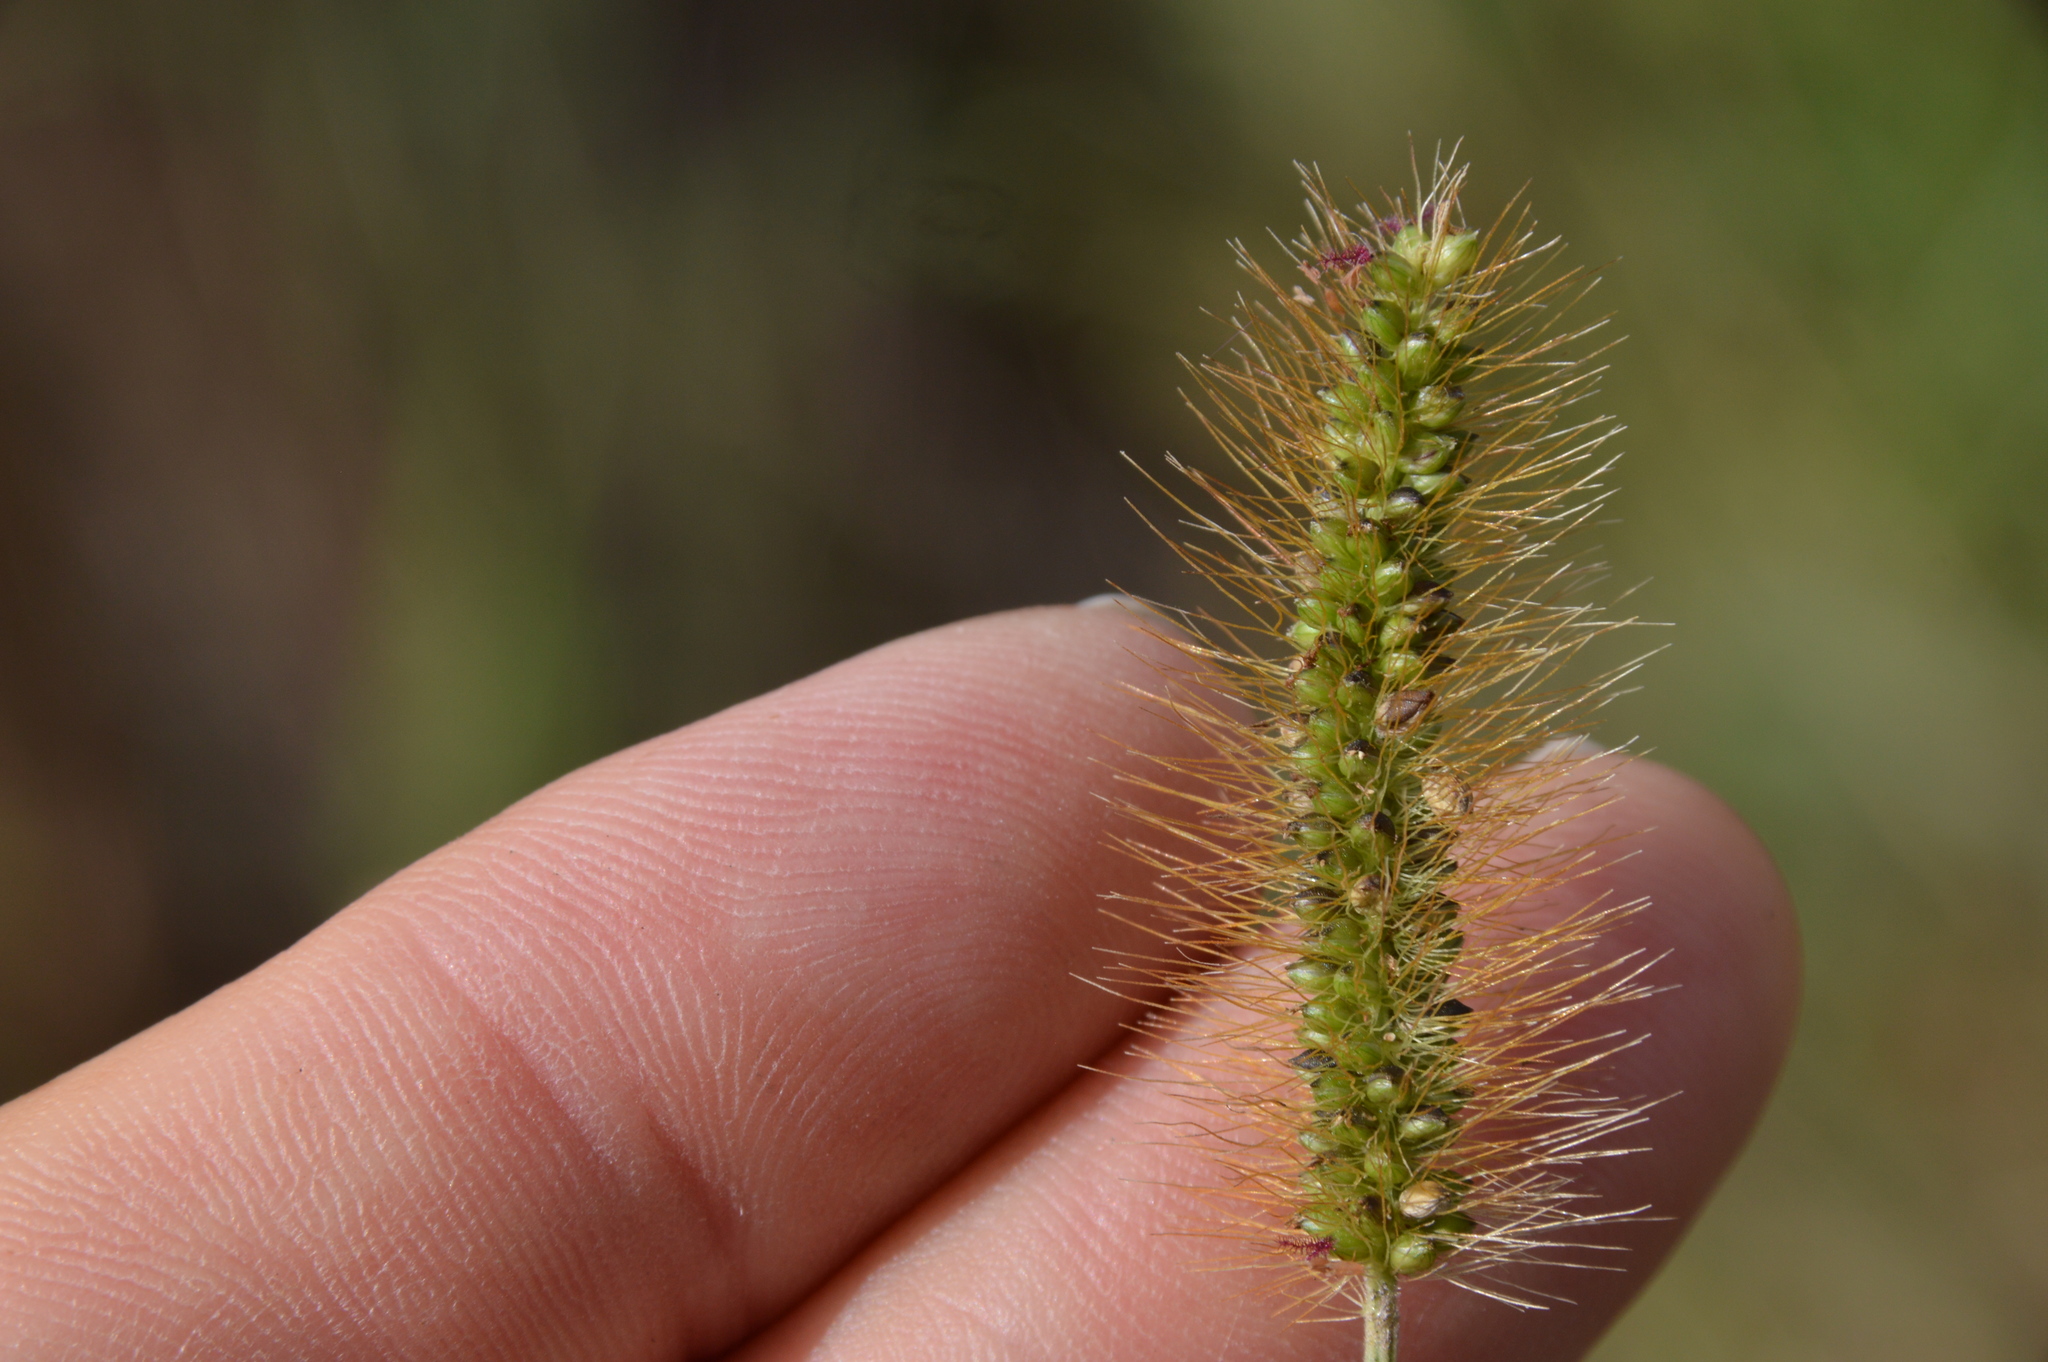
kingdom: Plantae
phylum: Tracheophyta
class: Liliopsida
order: Poales
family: Poaceae
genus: Setaria
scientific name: Setaria parviflora
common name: Knotroot bristle-grass
